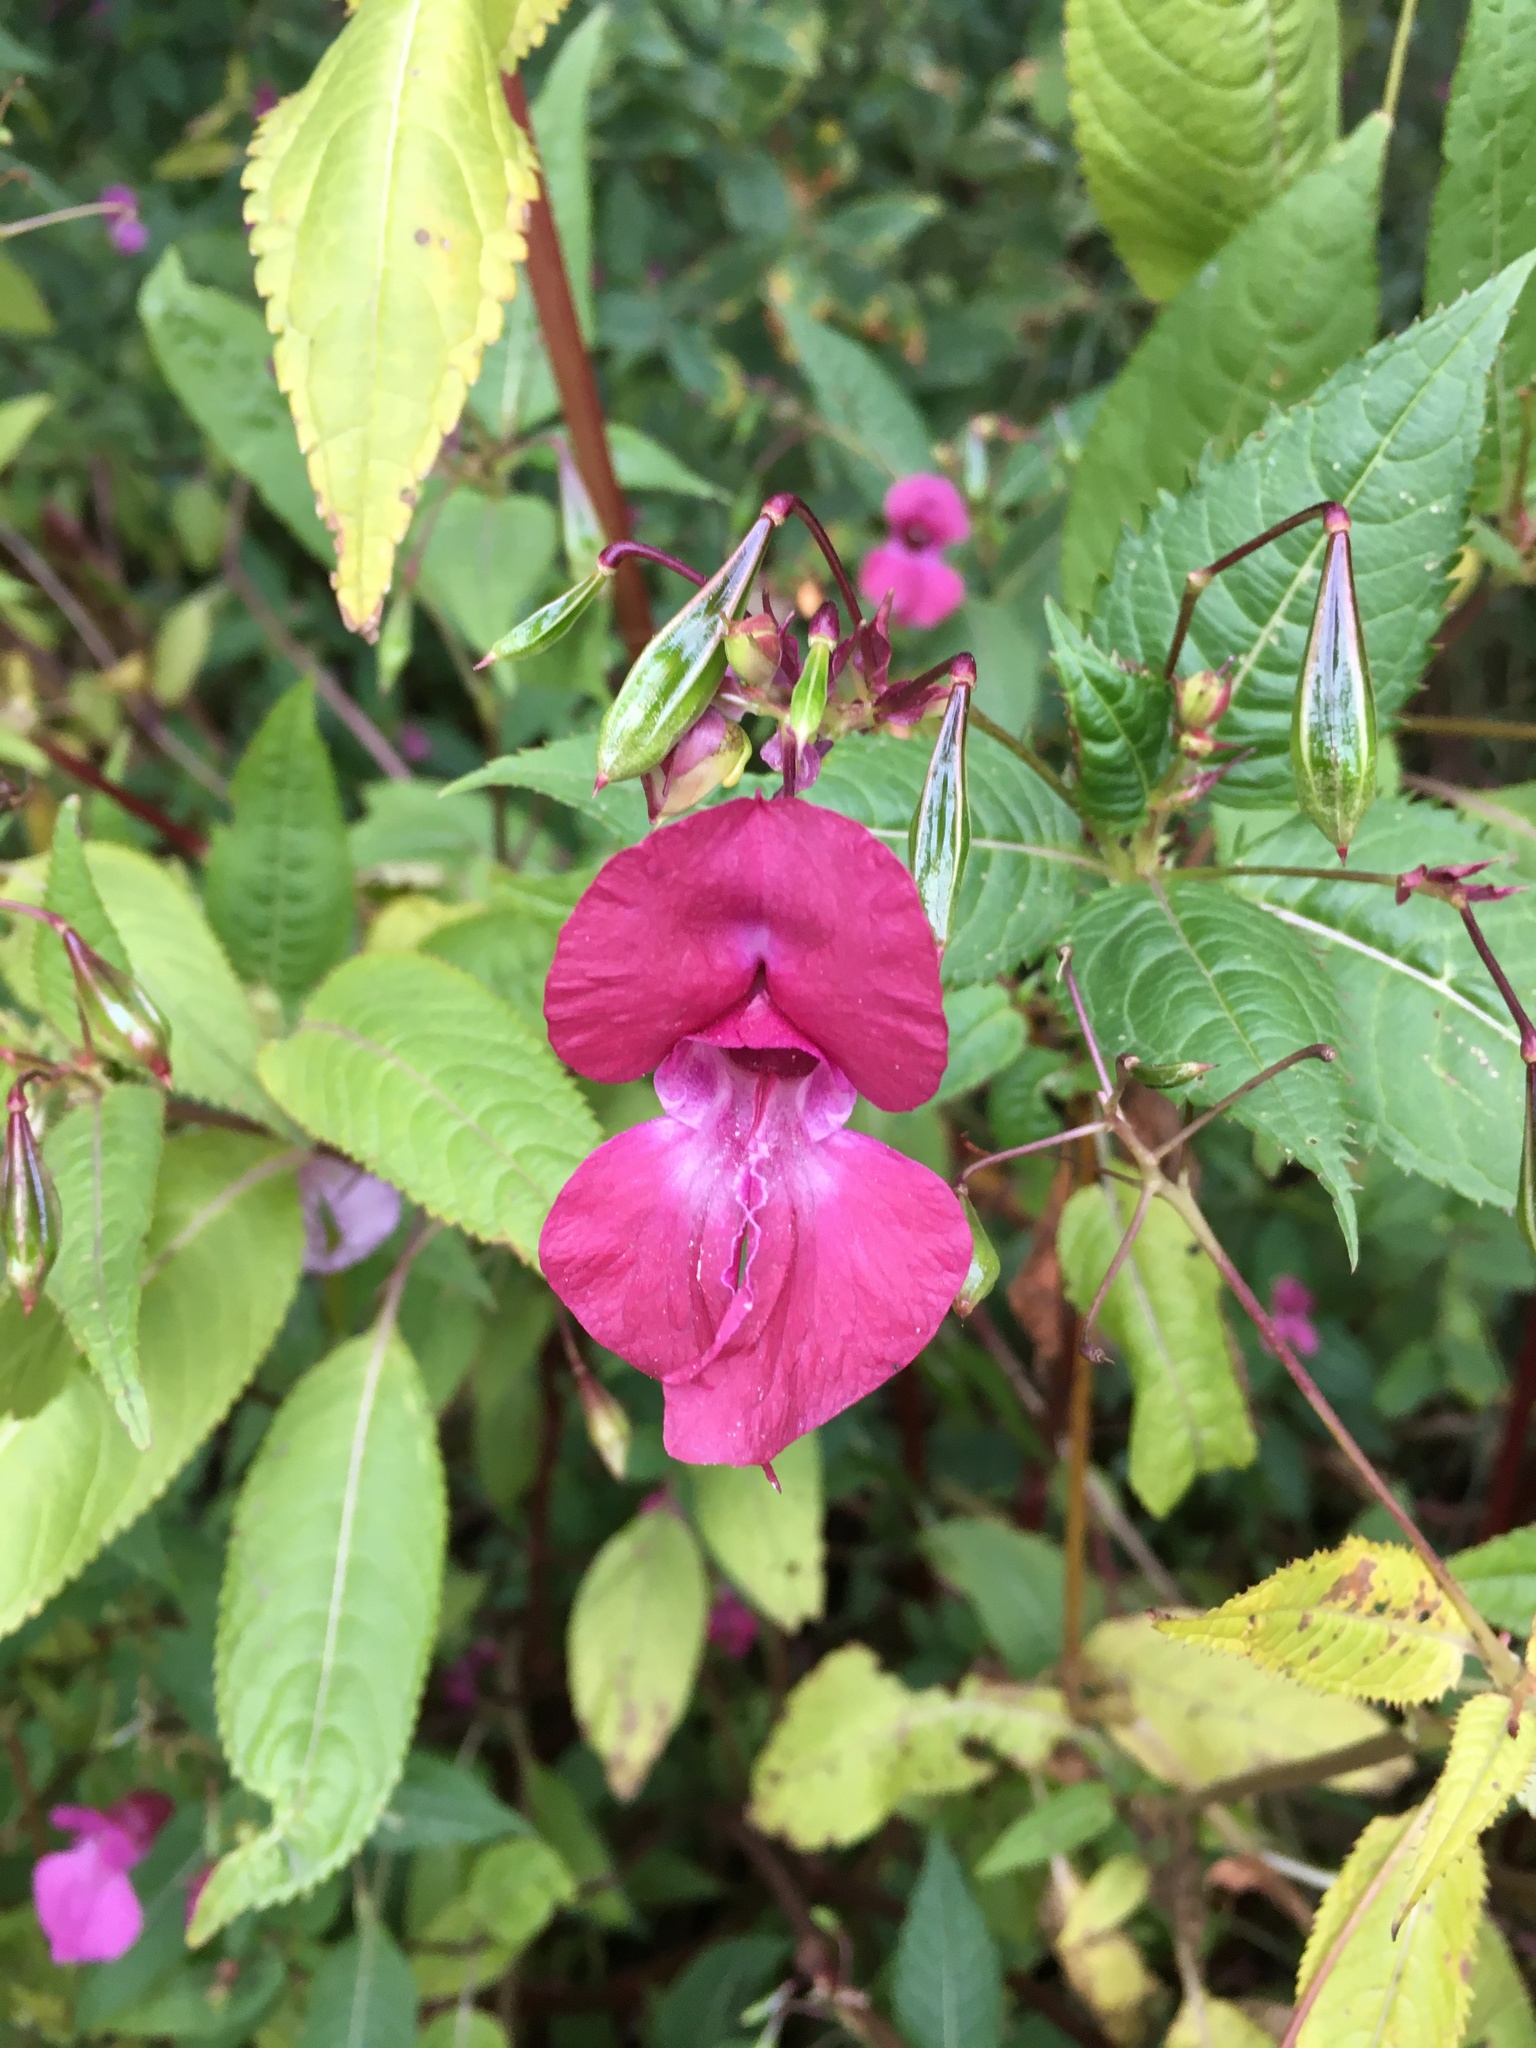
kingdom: Plantae
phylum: Tracheophyta
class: Magnoliopsida
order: Ericales
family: Balsaminaceae
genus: Impatiens
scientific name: Impatiens glandulifera
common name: Himalayan balsam
